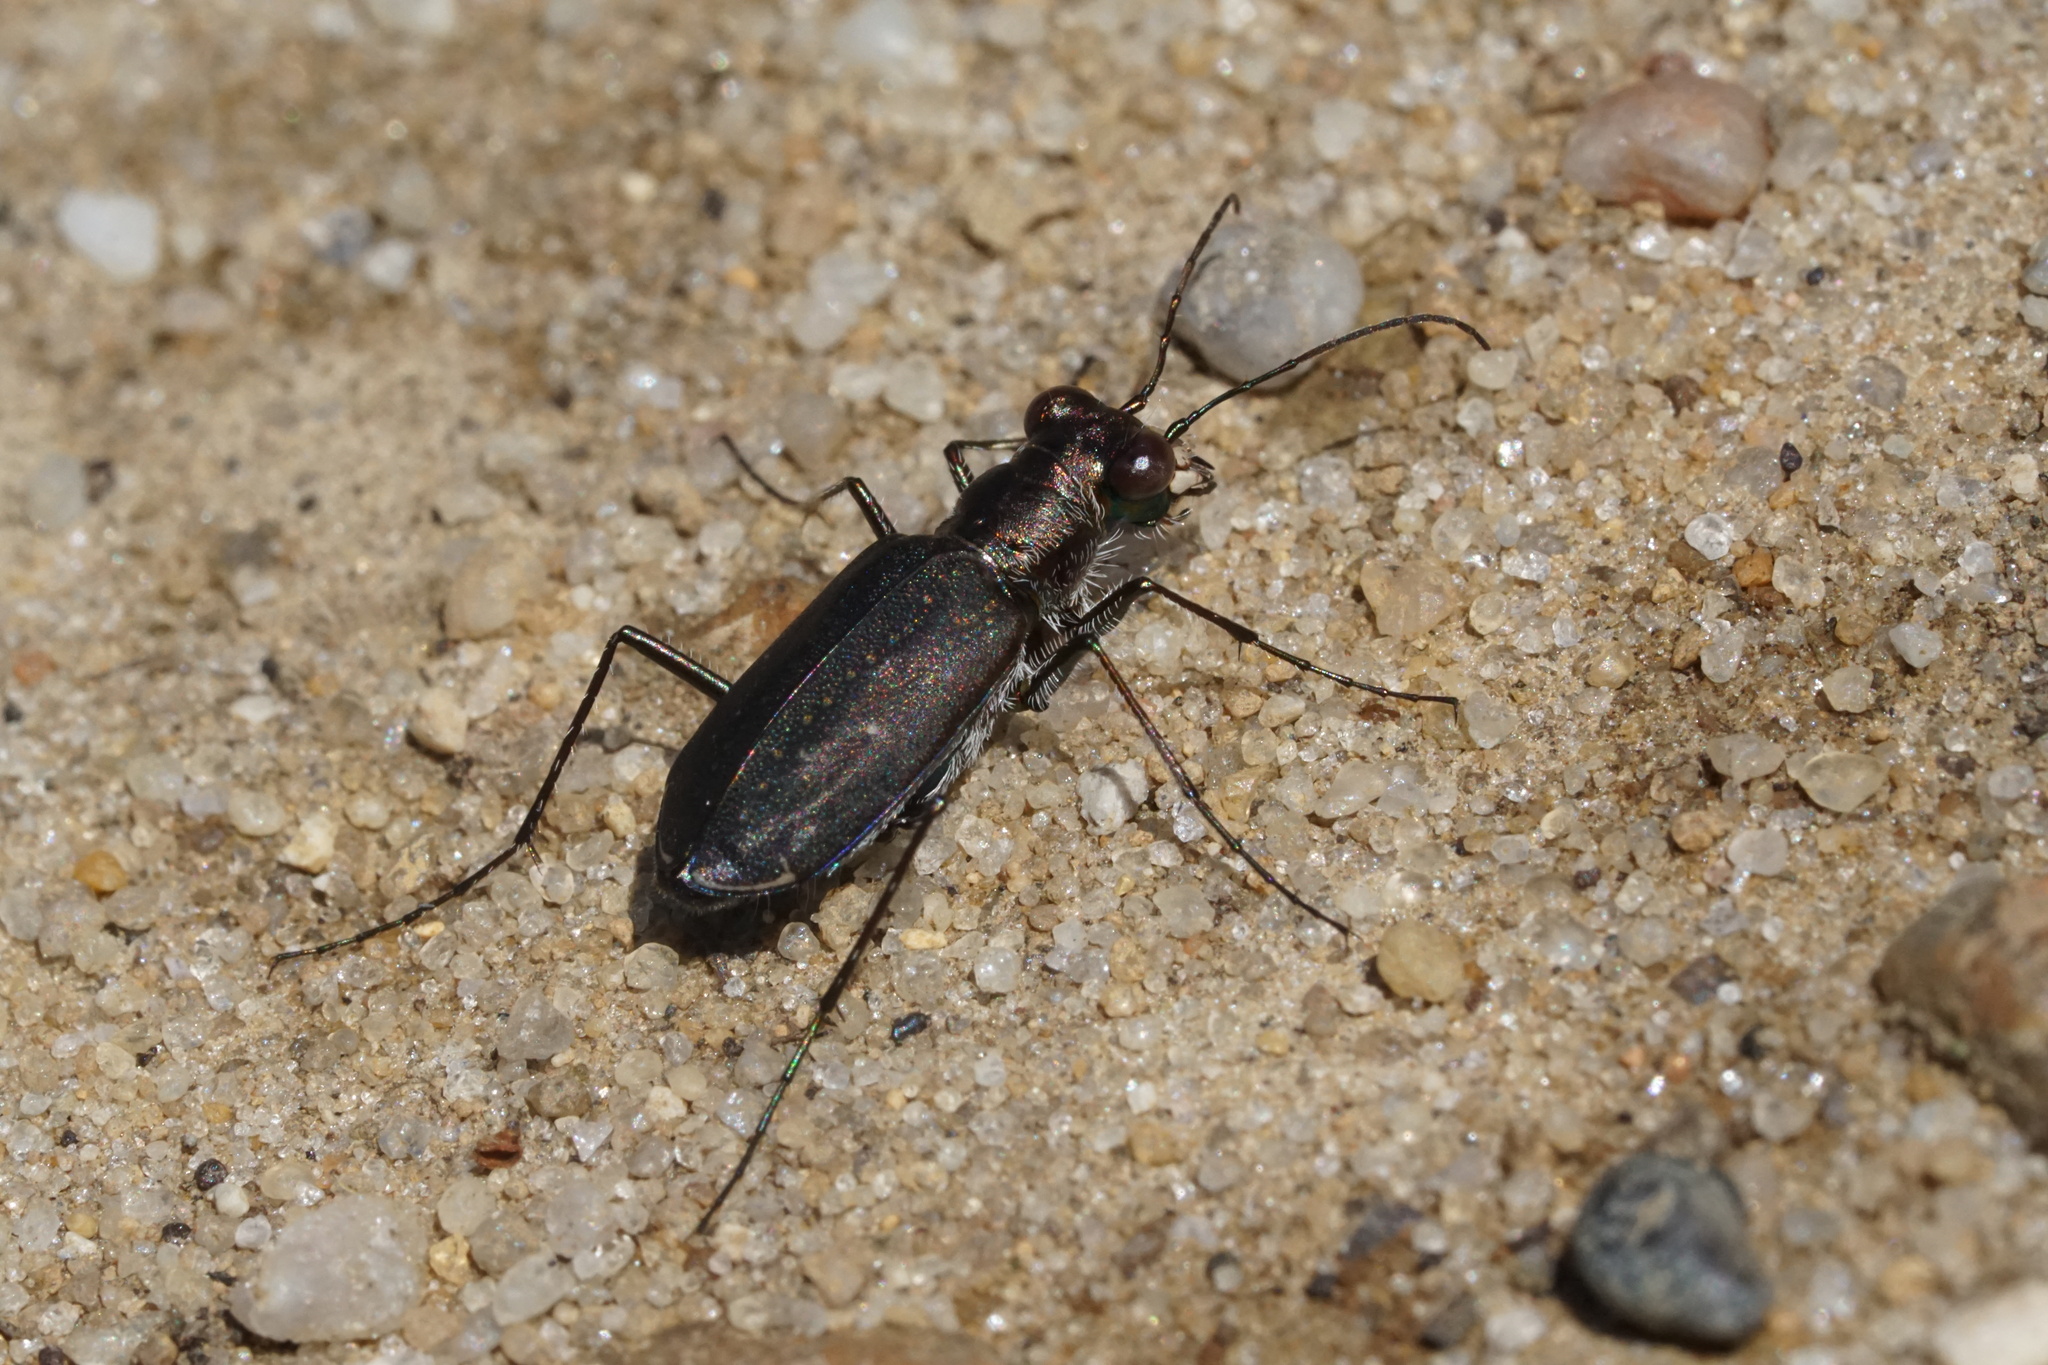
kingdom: Animalia
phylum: Arthropoda
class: Insecta
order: Coleoptera
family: Carabidae
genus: Cicindela
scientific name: Cicindela punctulata
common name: Punctured tiger beetle
